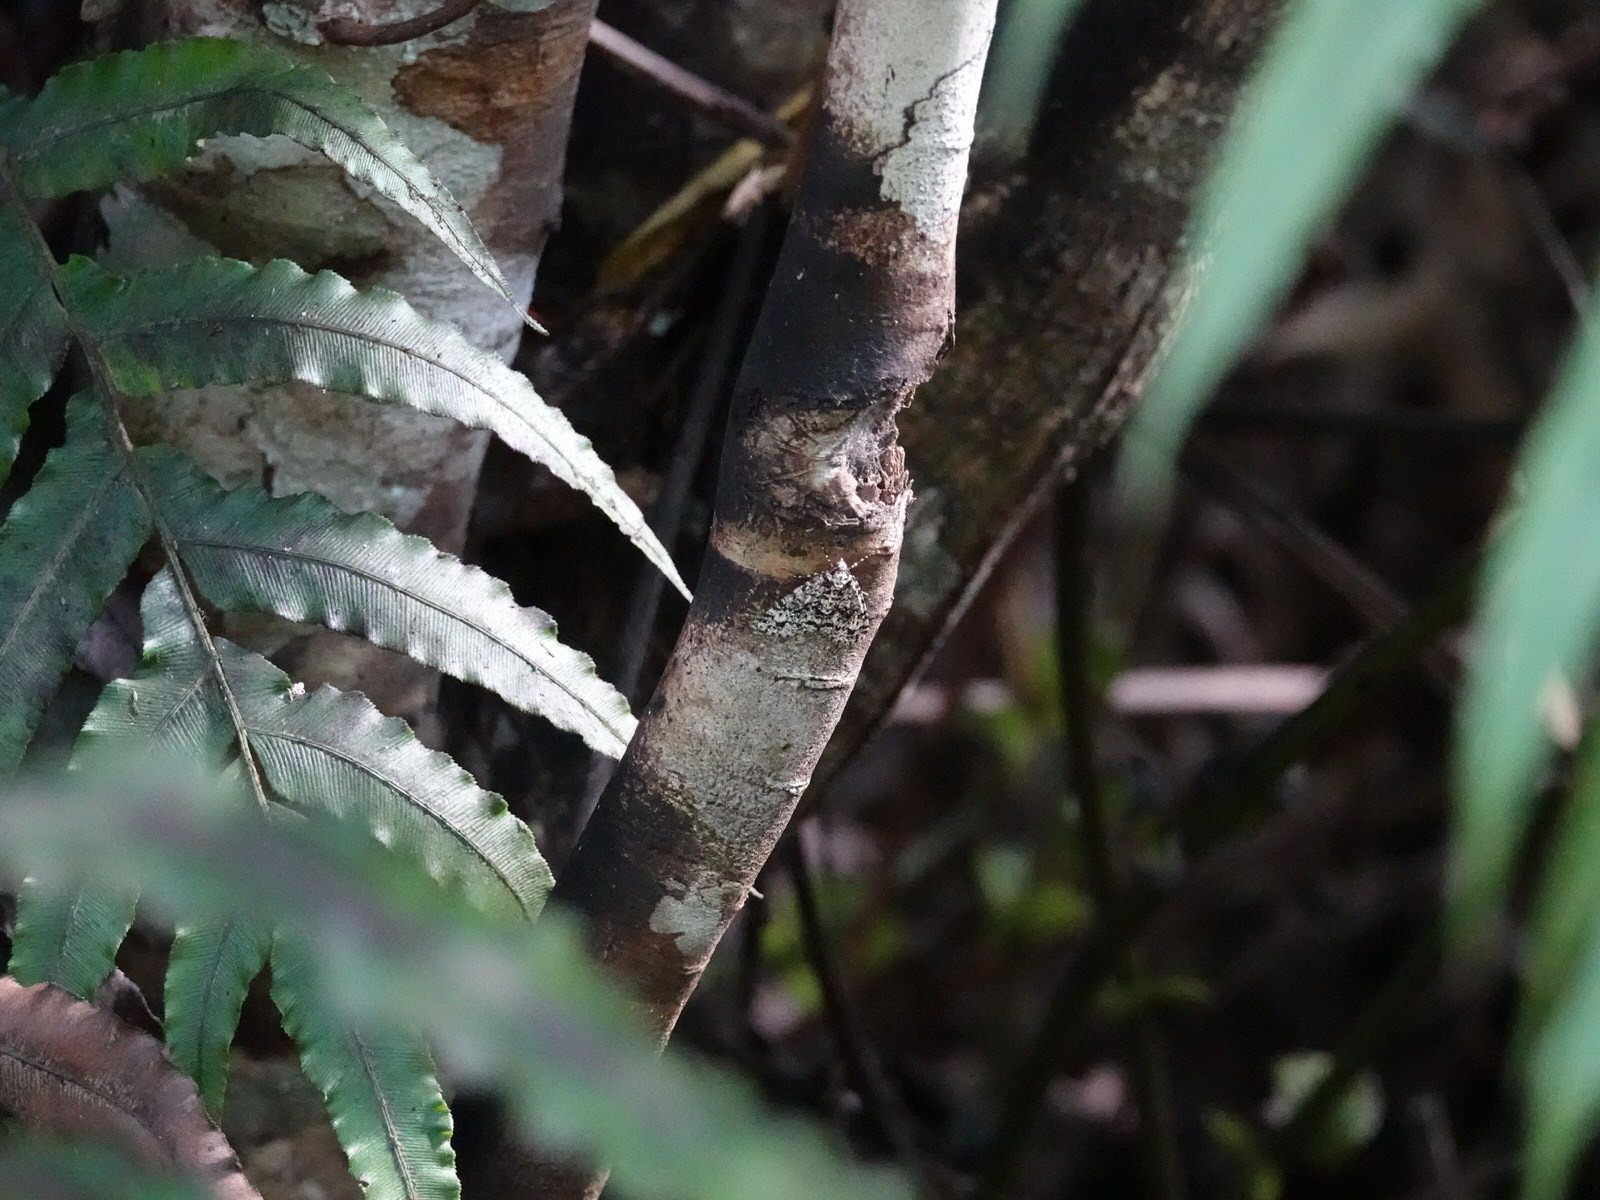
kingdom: Animalia
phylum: Arthropoda
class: Insecta
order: Lepidoptera
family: Geometridae
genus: Pseudocoremia
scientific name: Pseudocoremia monacha
